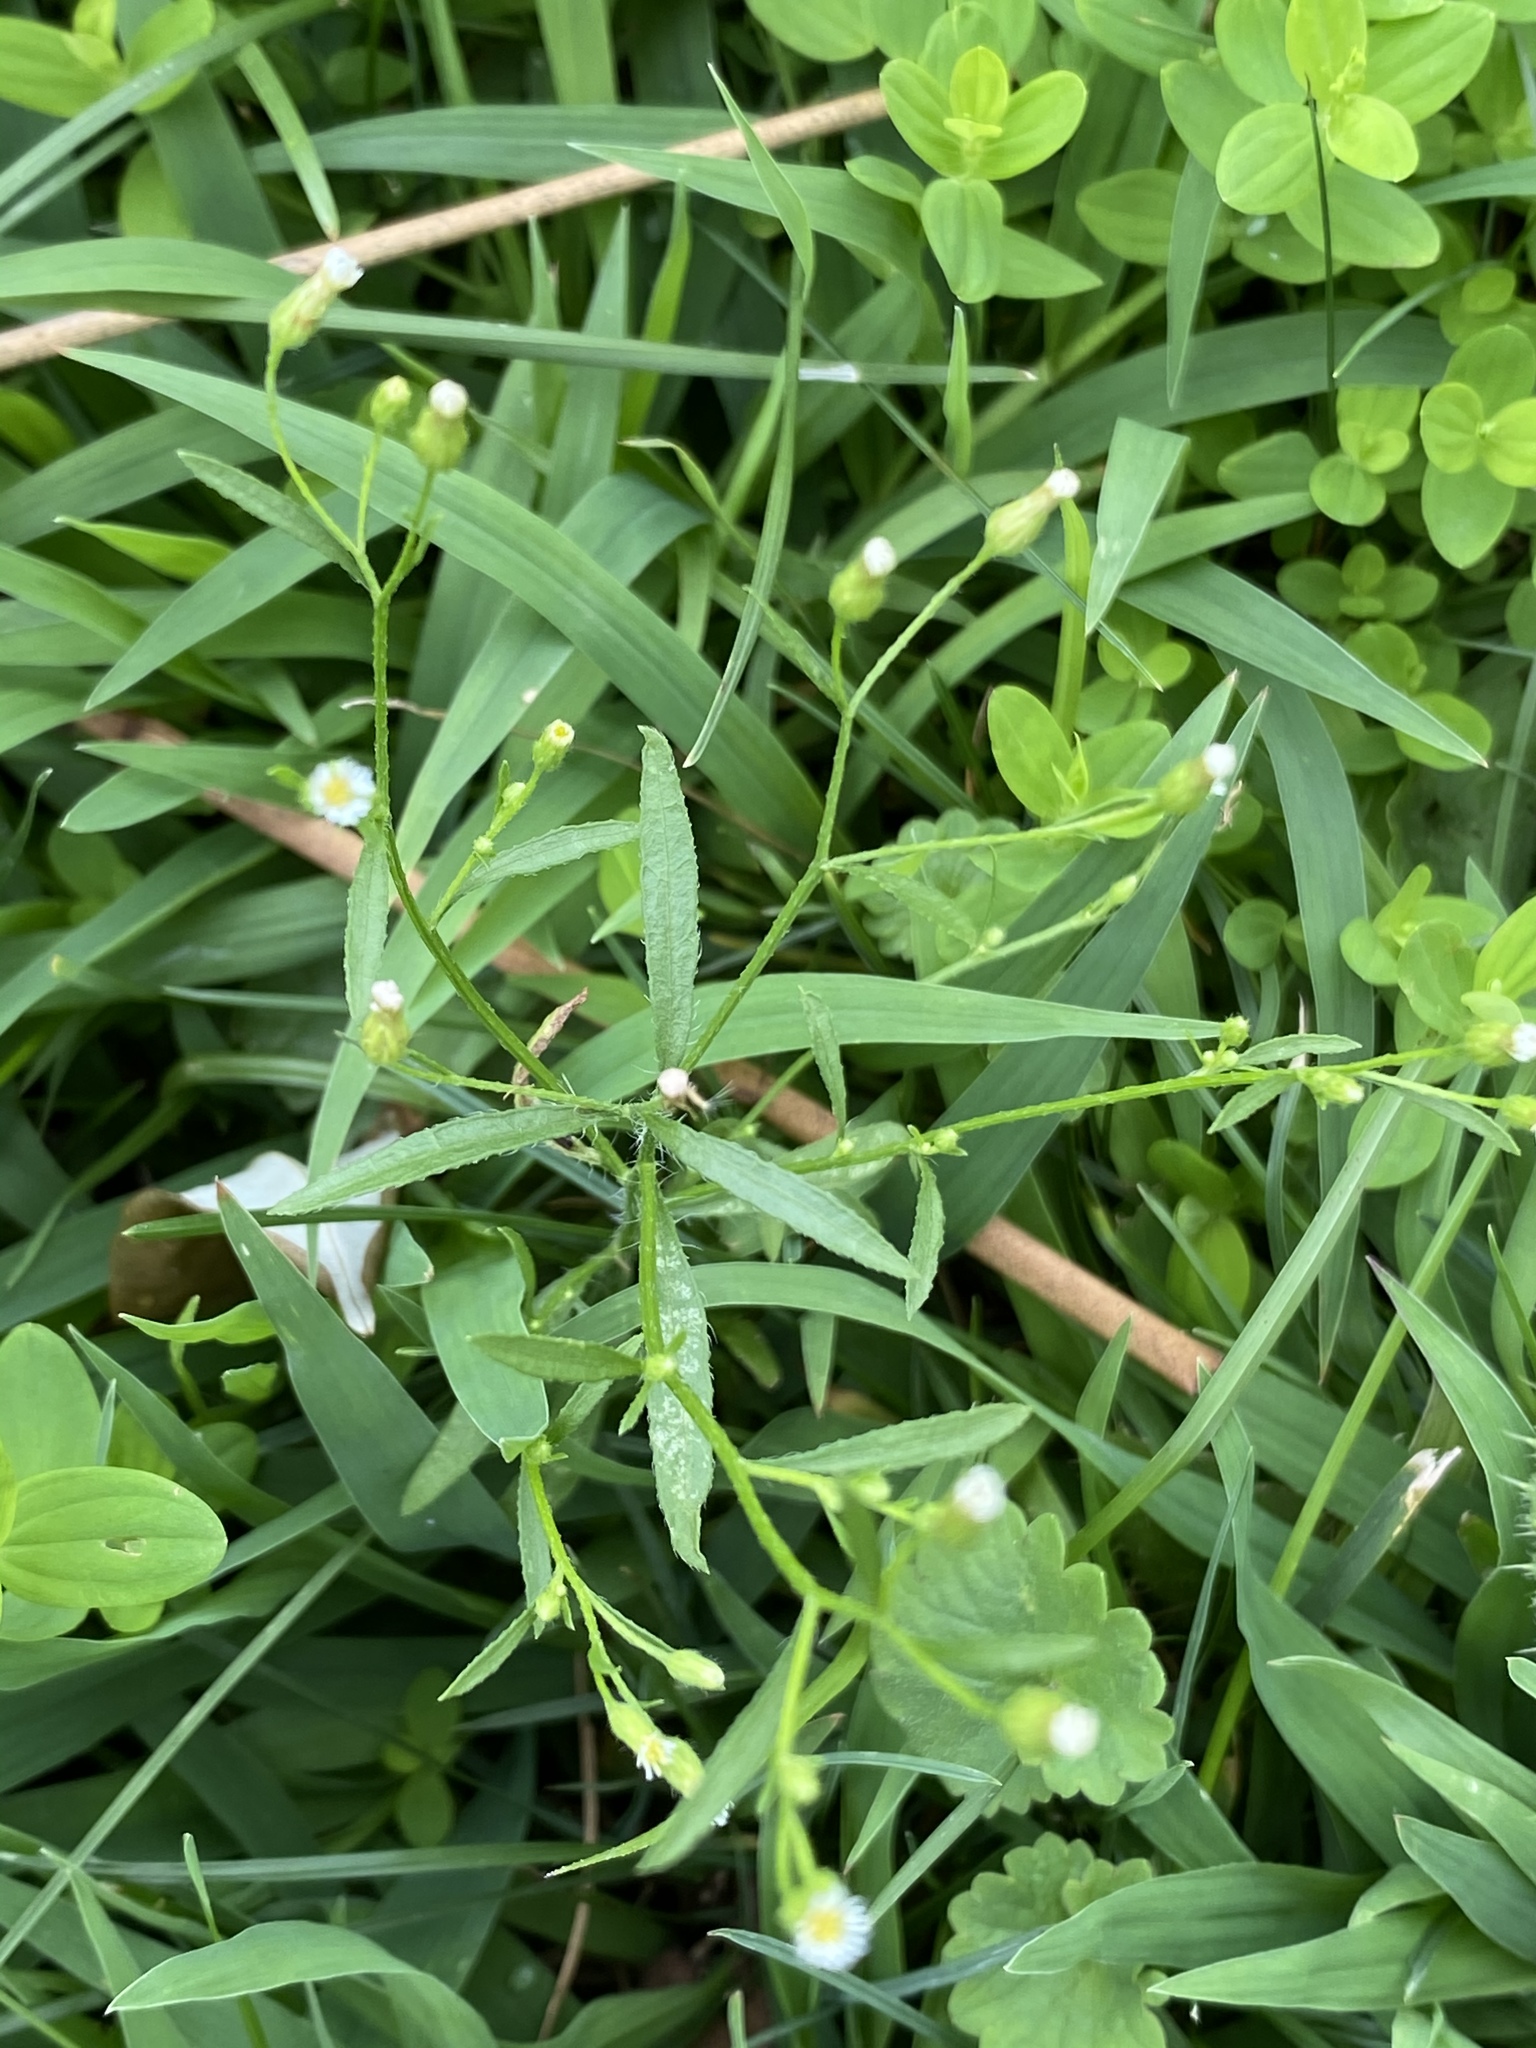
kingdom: Plantae
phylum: Tracheophyta
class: Magnoliopsida
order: Asterales
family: Asteraceae
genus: Erigeron
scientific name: Erigeron canadensis
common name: Canadian fleabane
